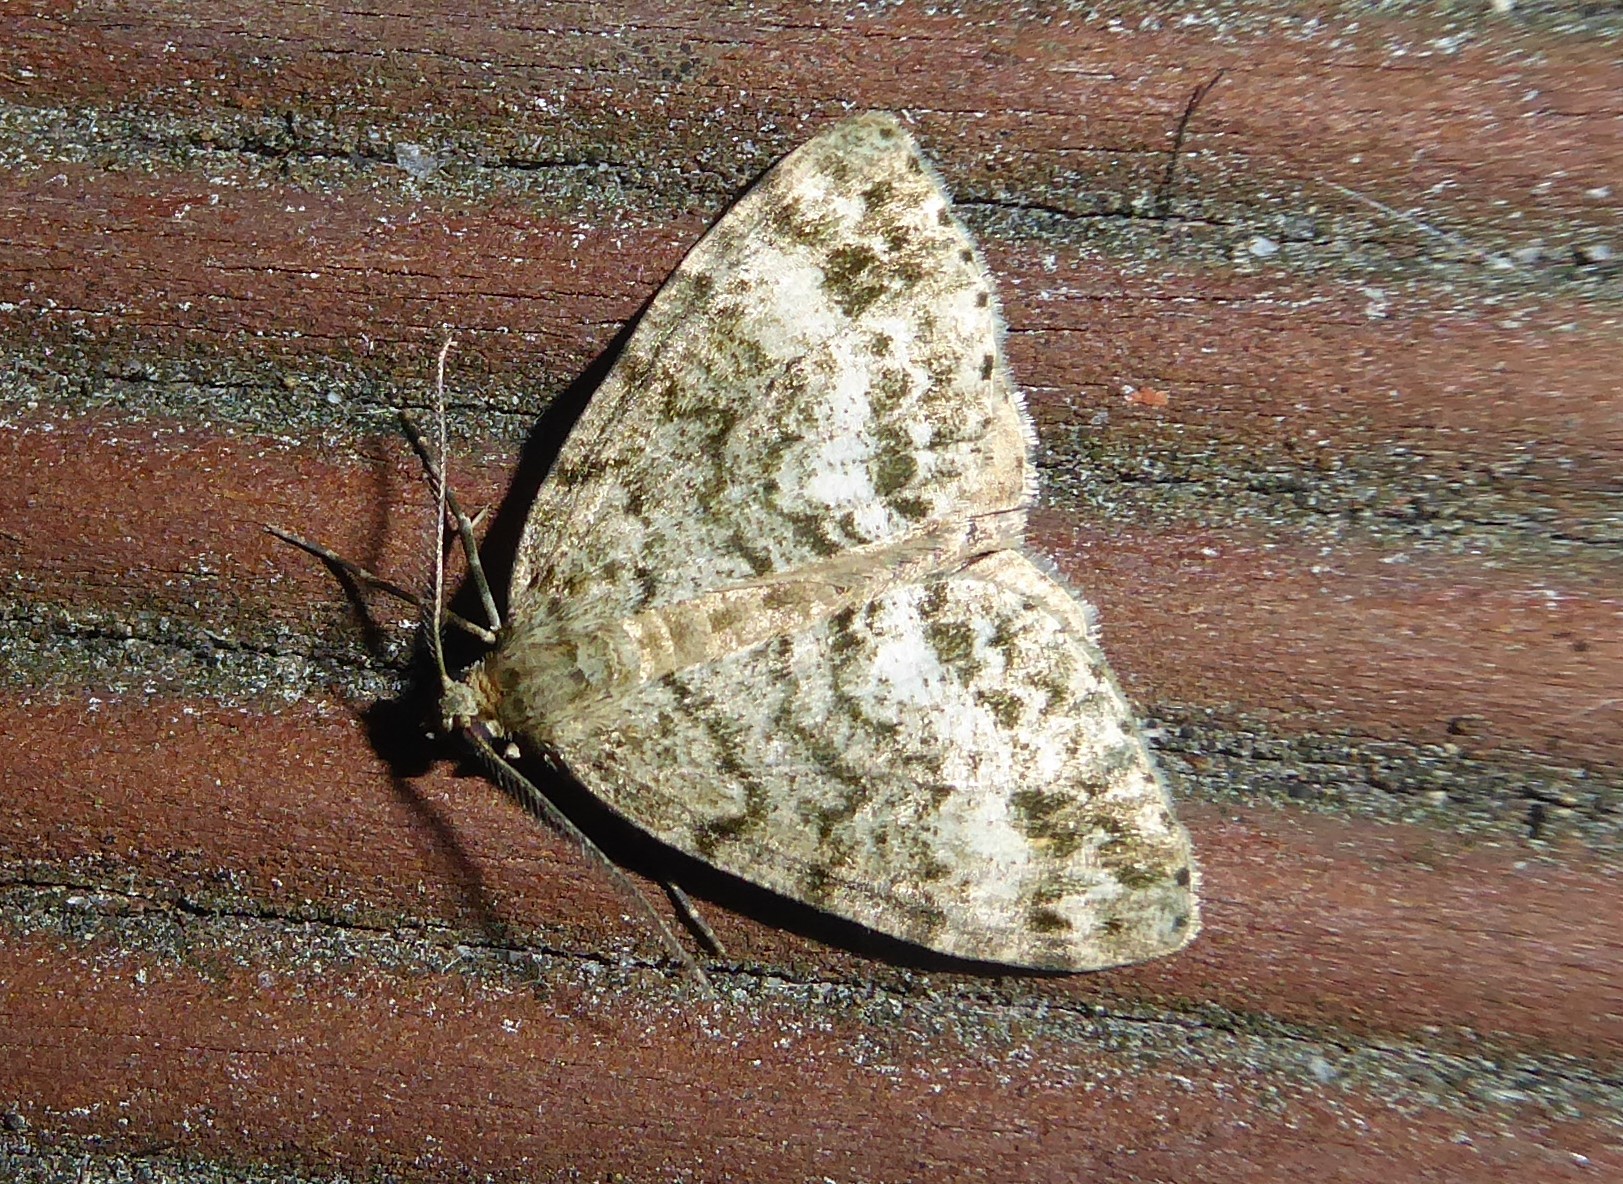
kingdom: Animalia
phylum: Arthropoda
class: Insecta
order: Lepidoptera
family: Geometridae
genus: Pseudocoremia
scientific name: Pseudocoremia indistincta
